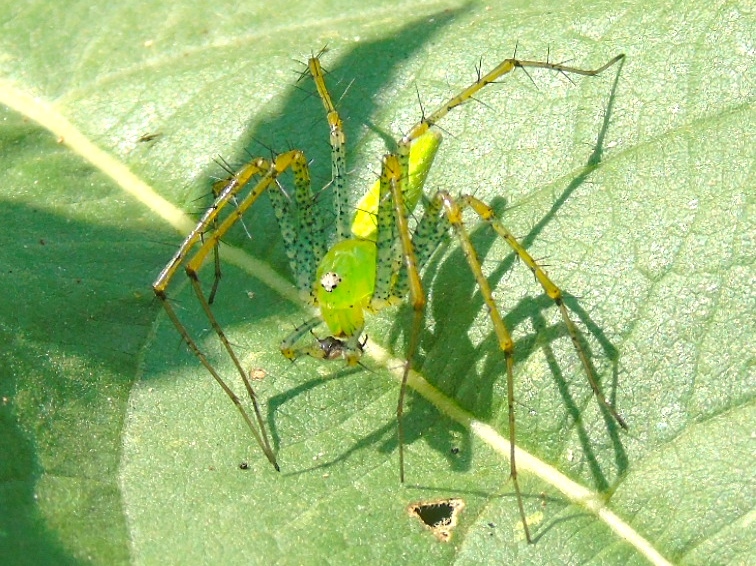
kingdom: Animalia
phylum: Arthropoda
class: Arachnida
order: Araneae
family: Oxyopidae
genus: Peucetia
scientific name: Peucetia
